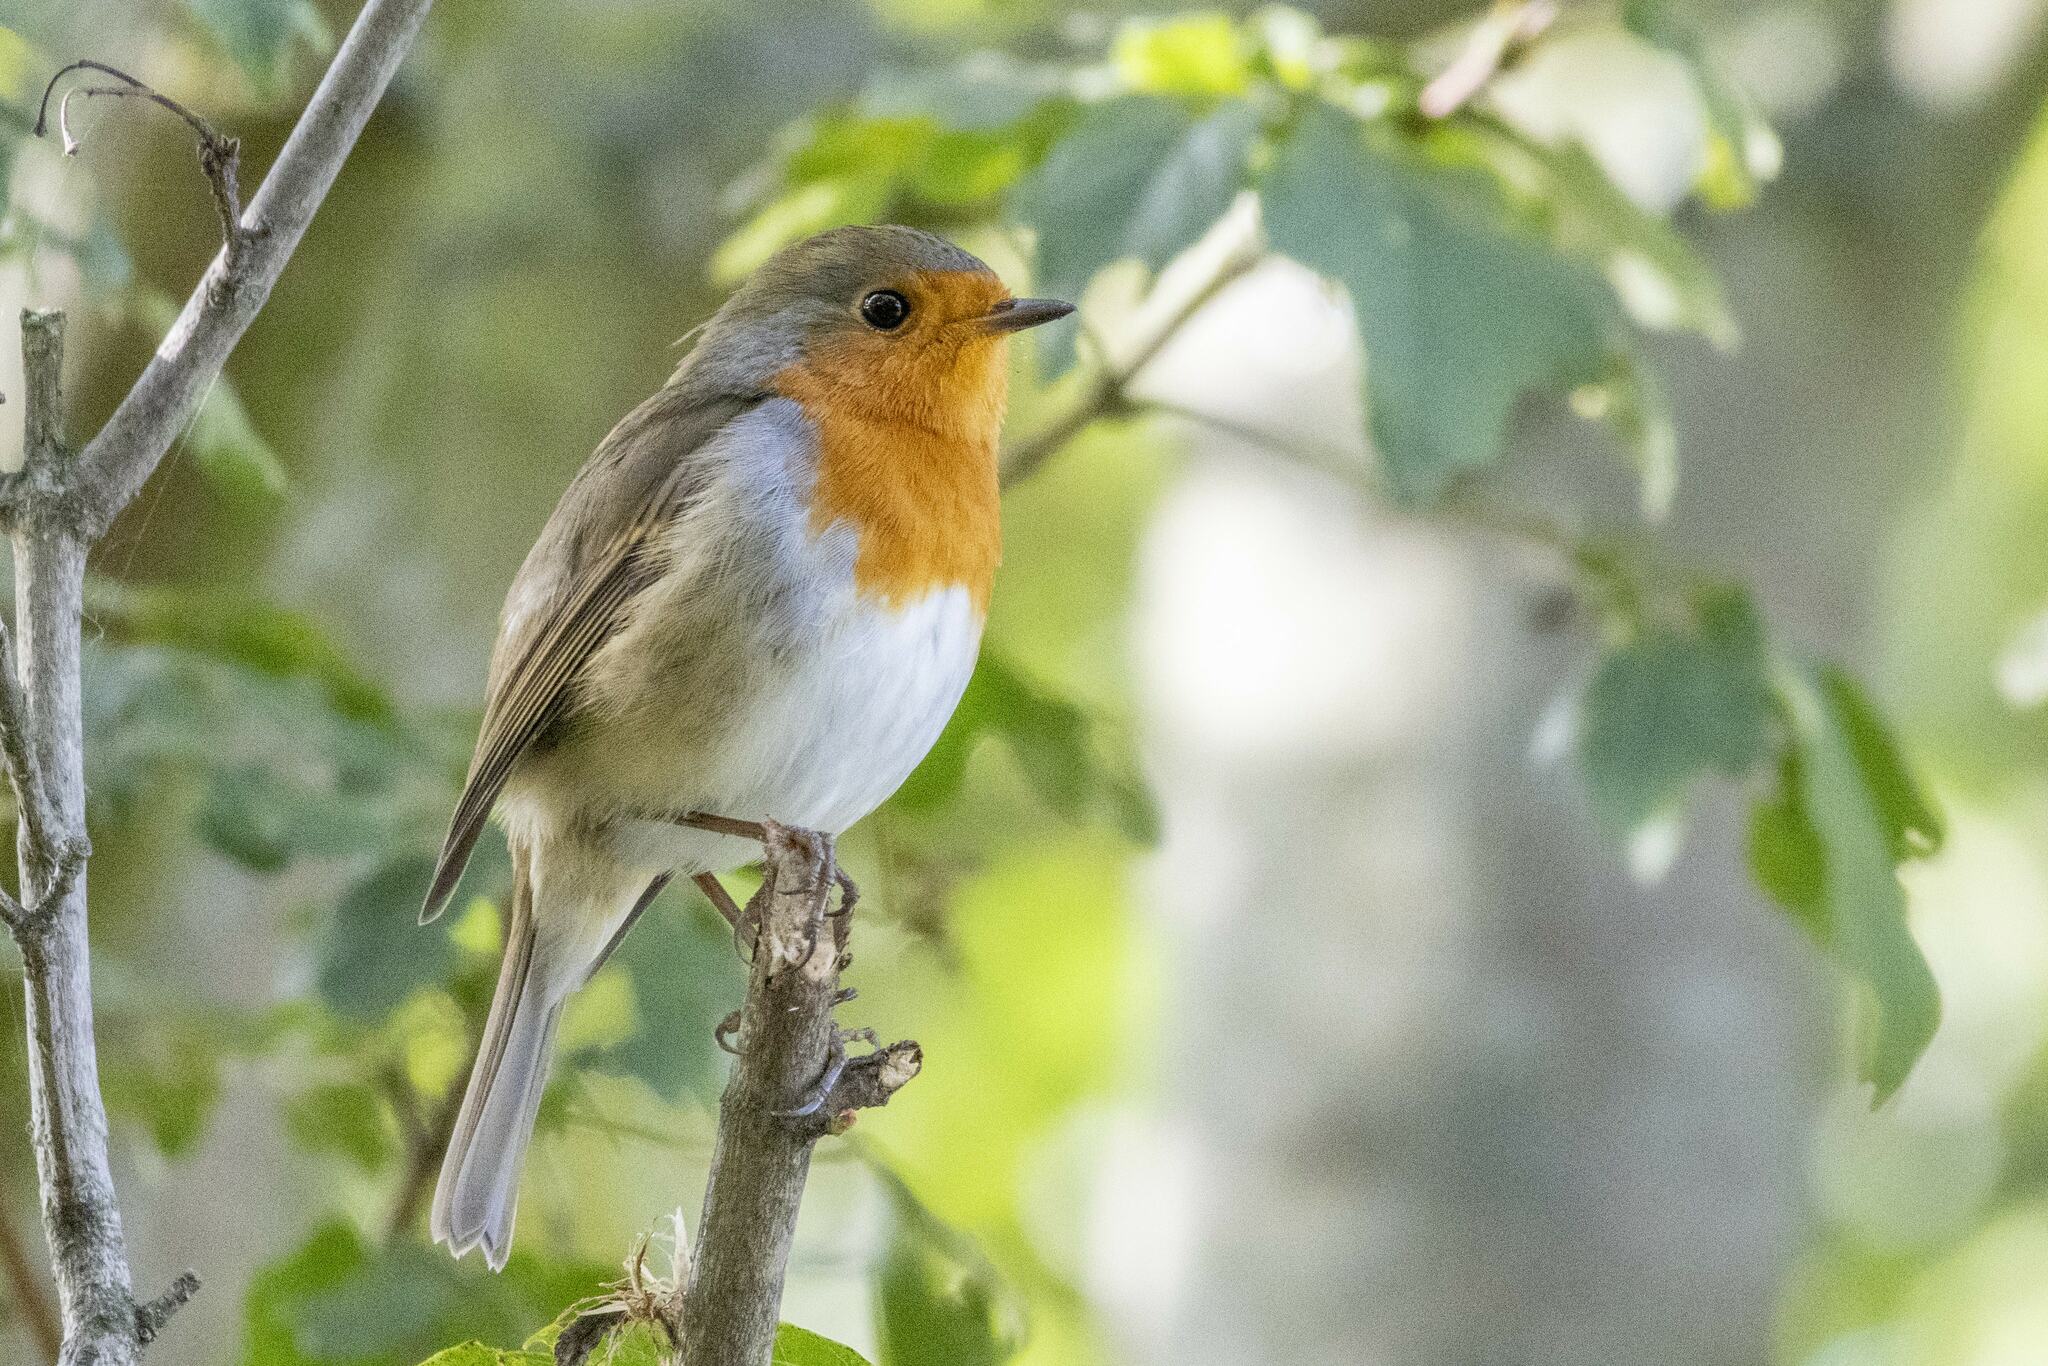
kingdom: Animalia
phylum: Chordata
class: Aves
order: Passeriformes
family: Muscicapidae
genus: Erithacus
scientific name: Erithacus rubecula
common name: European robin
